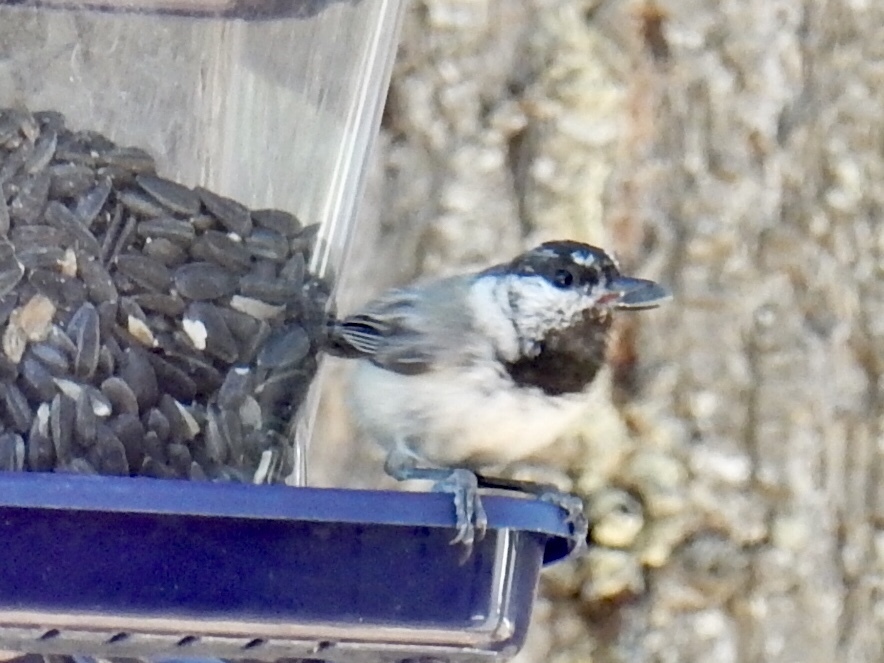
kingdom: Animalia
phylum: Chordata
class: Aves
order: Passeriformes
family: Paridae
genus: Poecile
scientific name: Poecile gambeli
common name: Mountain chickadee
